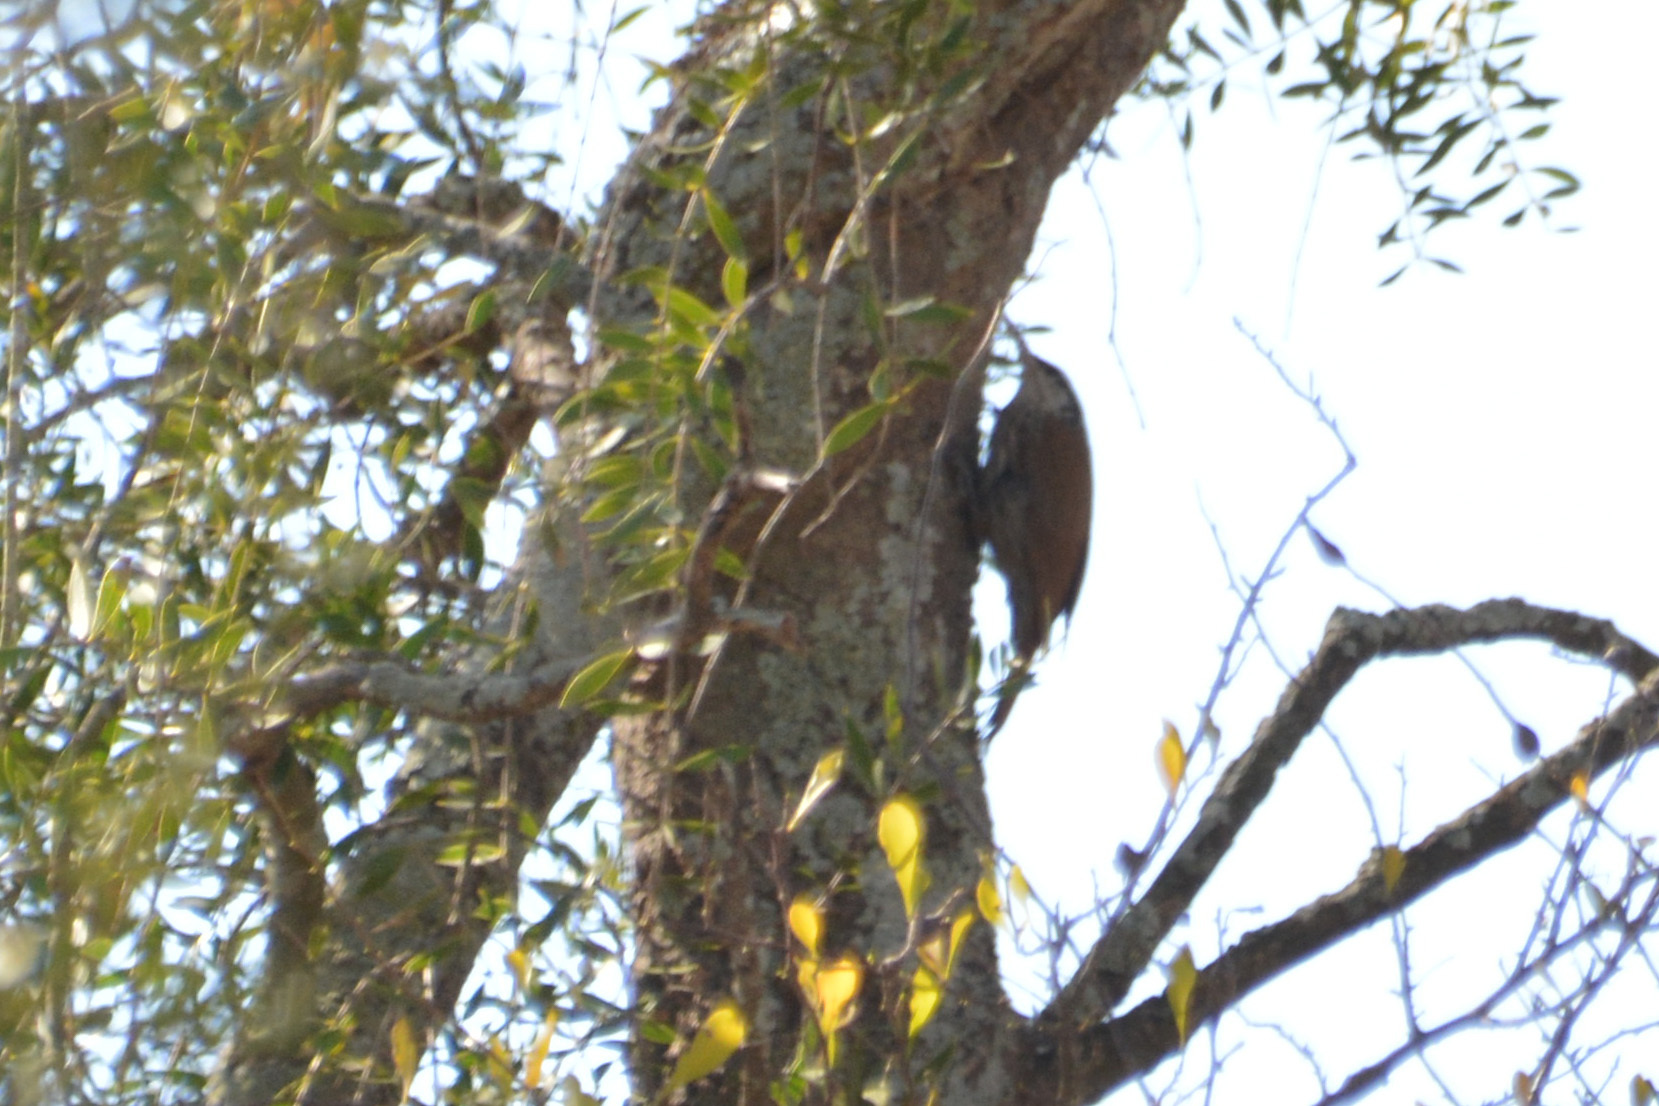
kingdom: Animalia
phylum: Chordata
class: Aves
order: Passeriformes
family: Furnariidae
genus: Lepidocolaptes
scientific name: Lepidocolaptes angustirostris
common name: Narrow-billed woodcreeper
